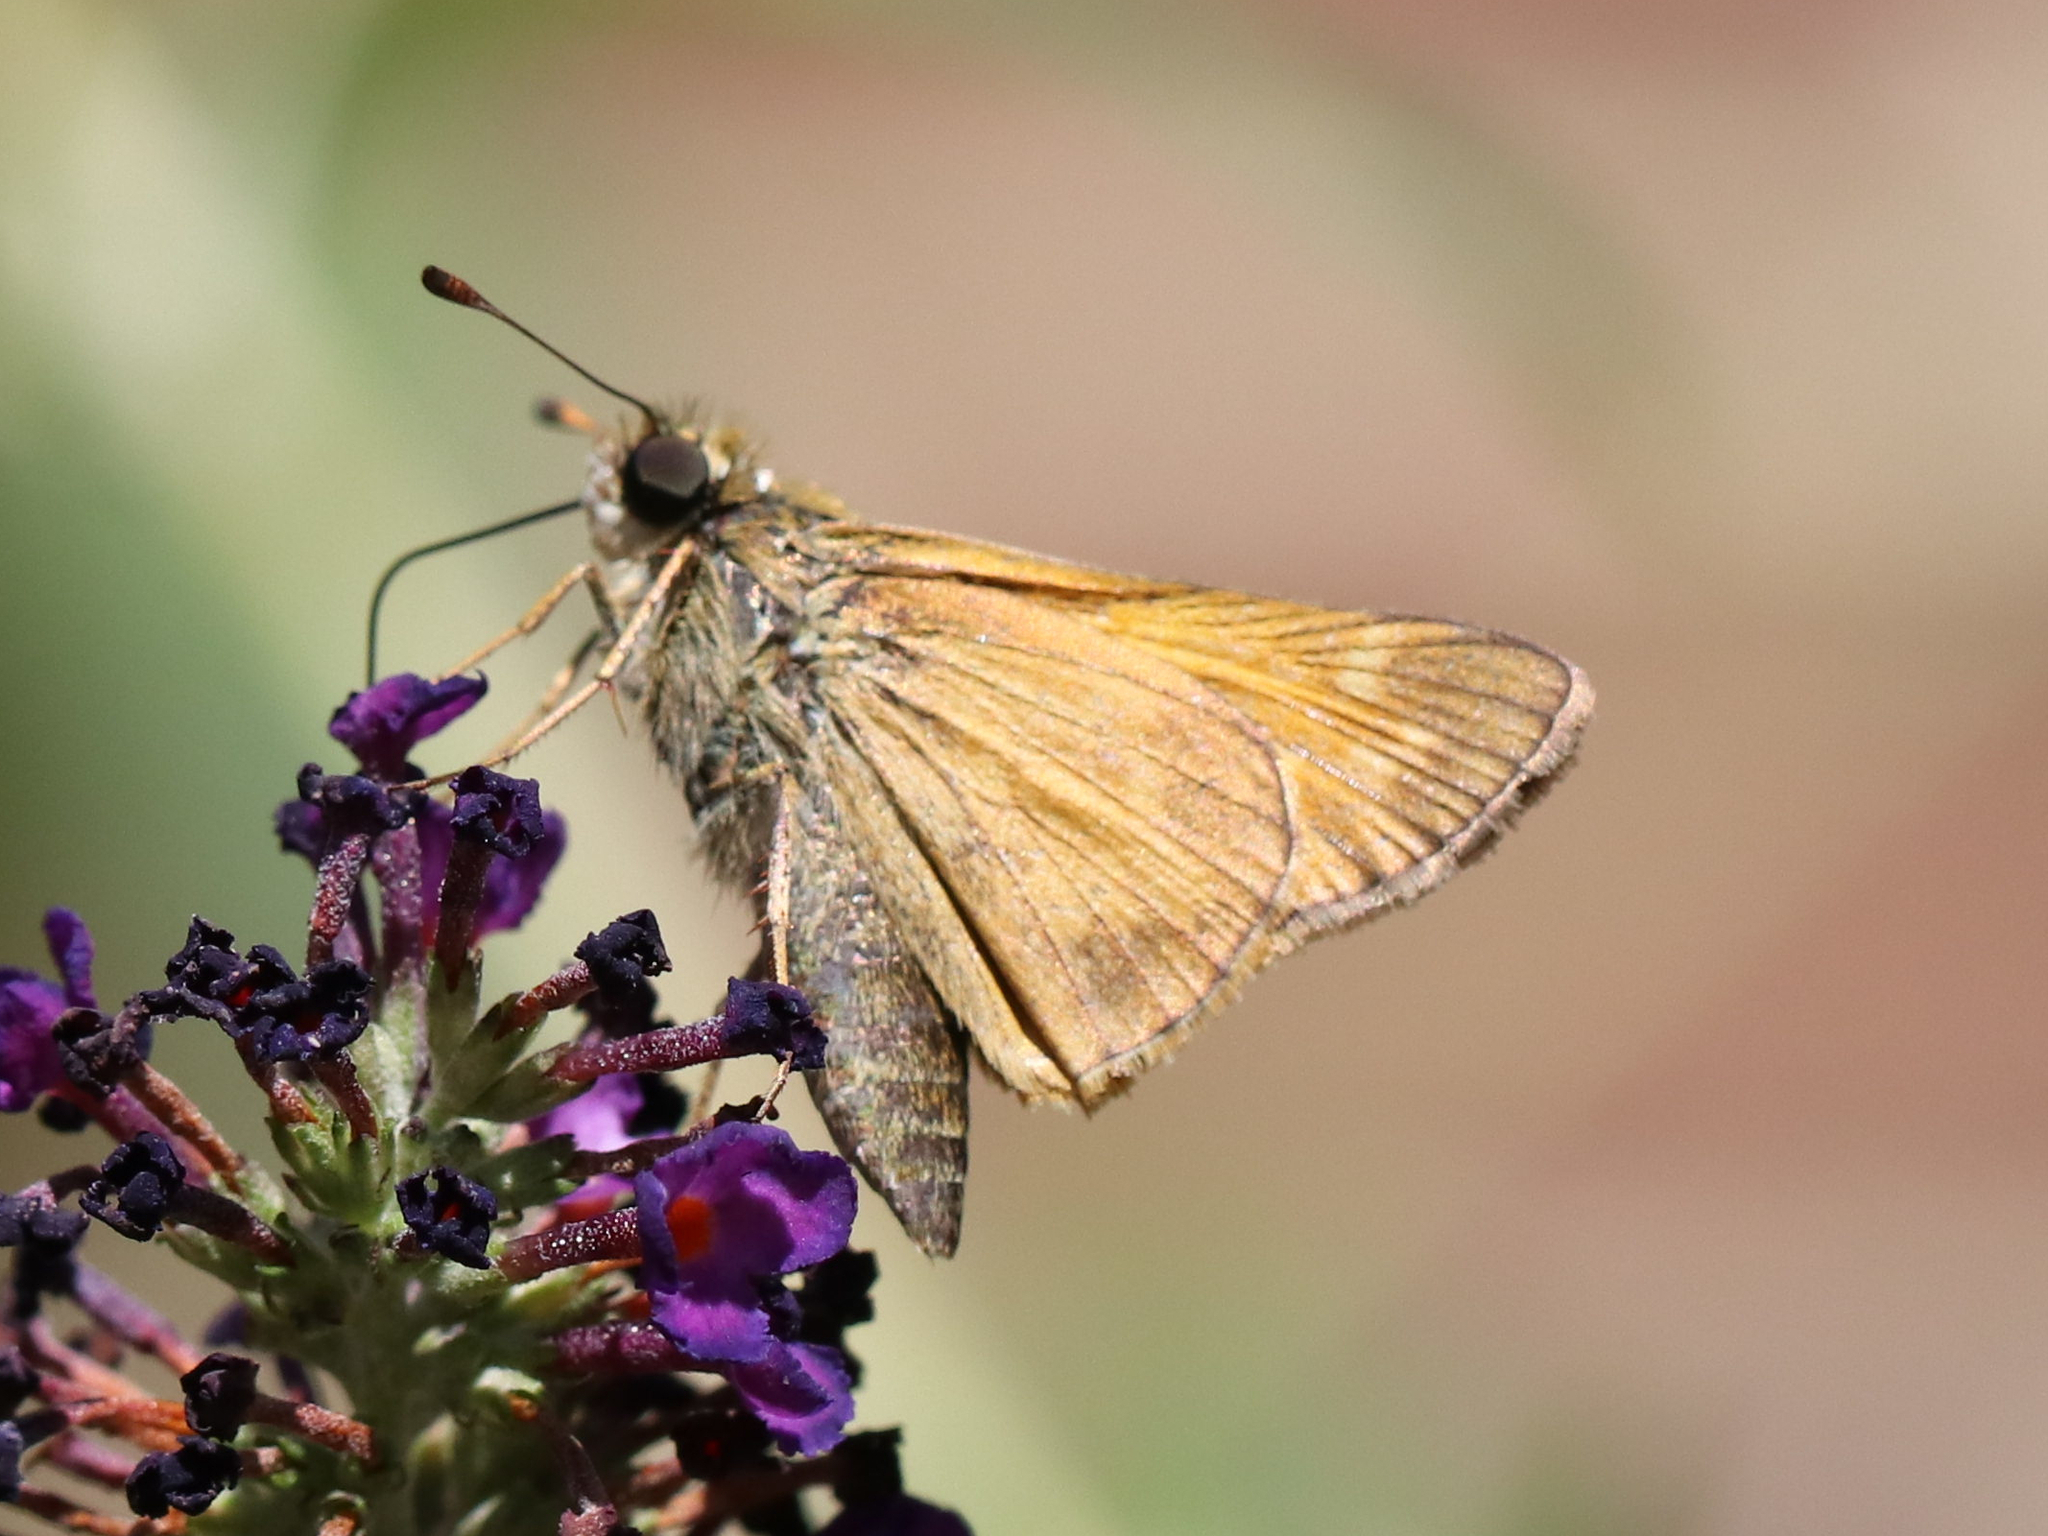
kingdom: Animalia
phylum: Arthropoda
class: Insecta
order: Lepidoptera
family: Hesperiidae
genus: Atalopedes
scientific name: Atalopedes
